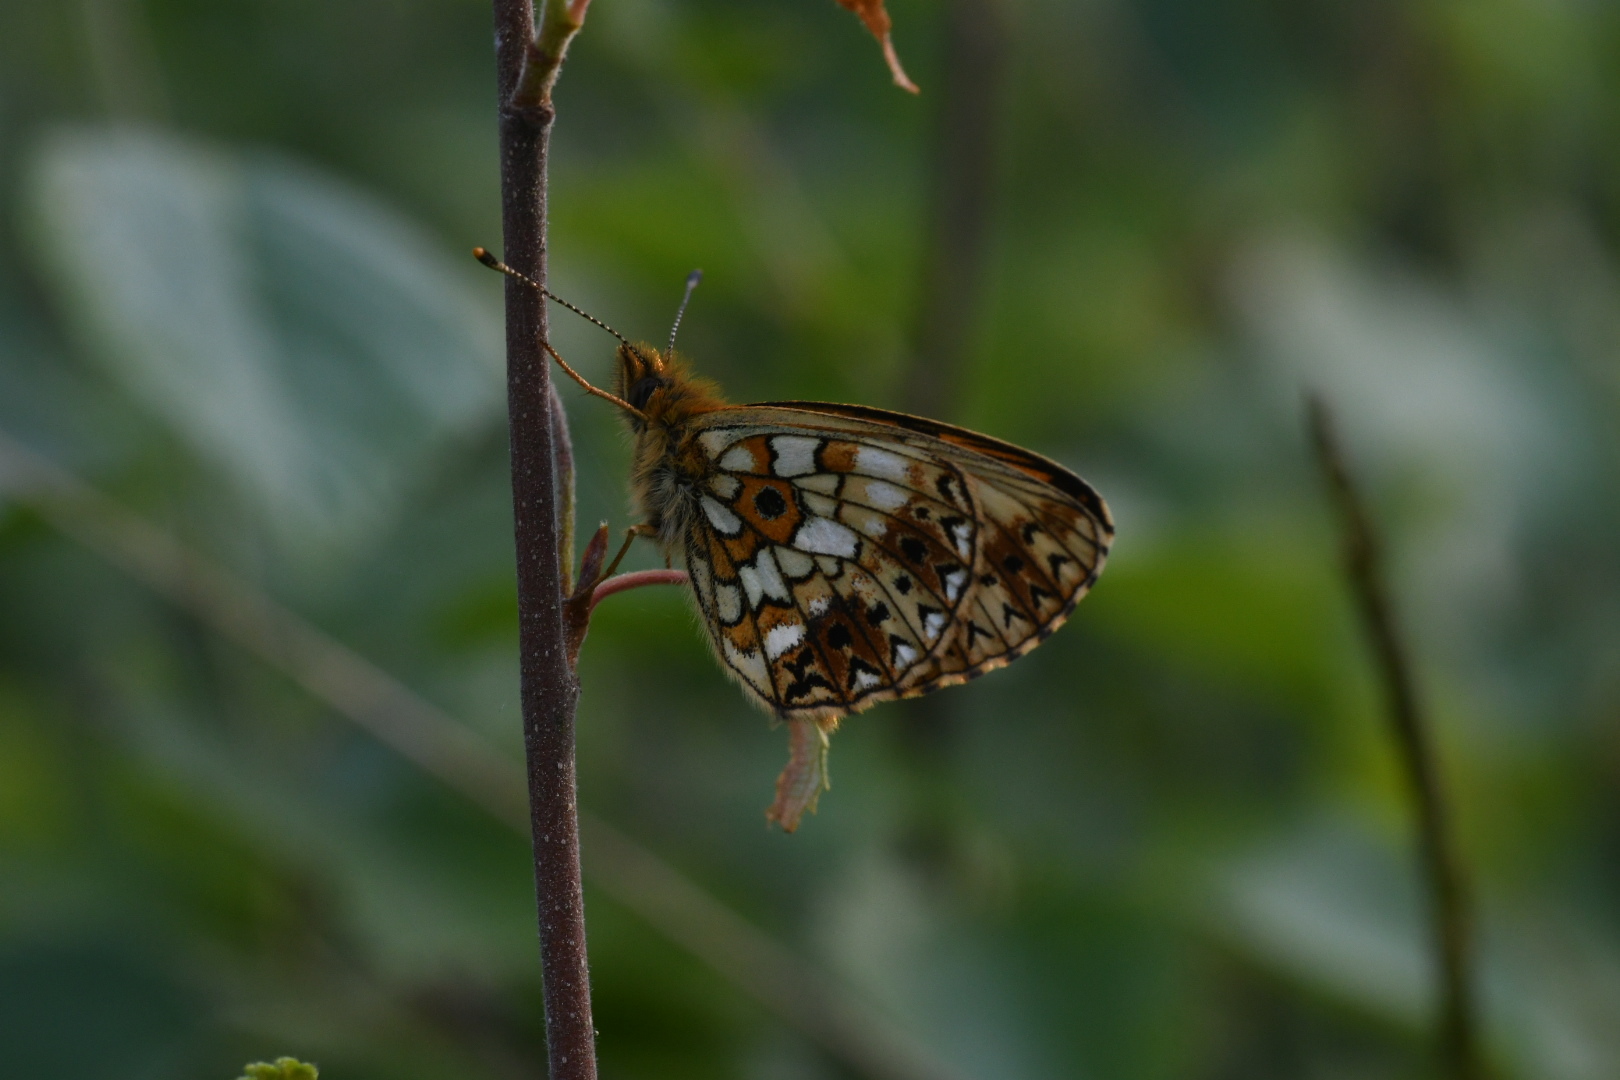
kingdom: Animalia
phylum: Arthropoda
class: Insecta
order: Lepidoptera
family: Nymphalidae
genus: Boloria
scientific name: Boloria selene
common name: Small pearl-bordered fritillary
